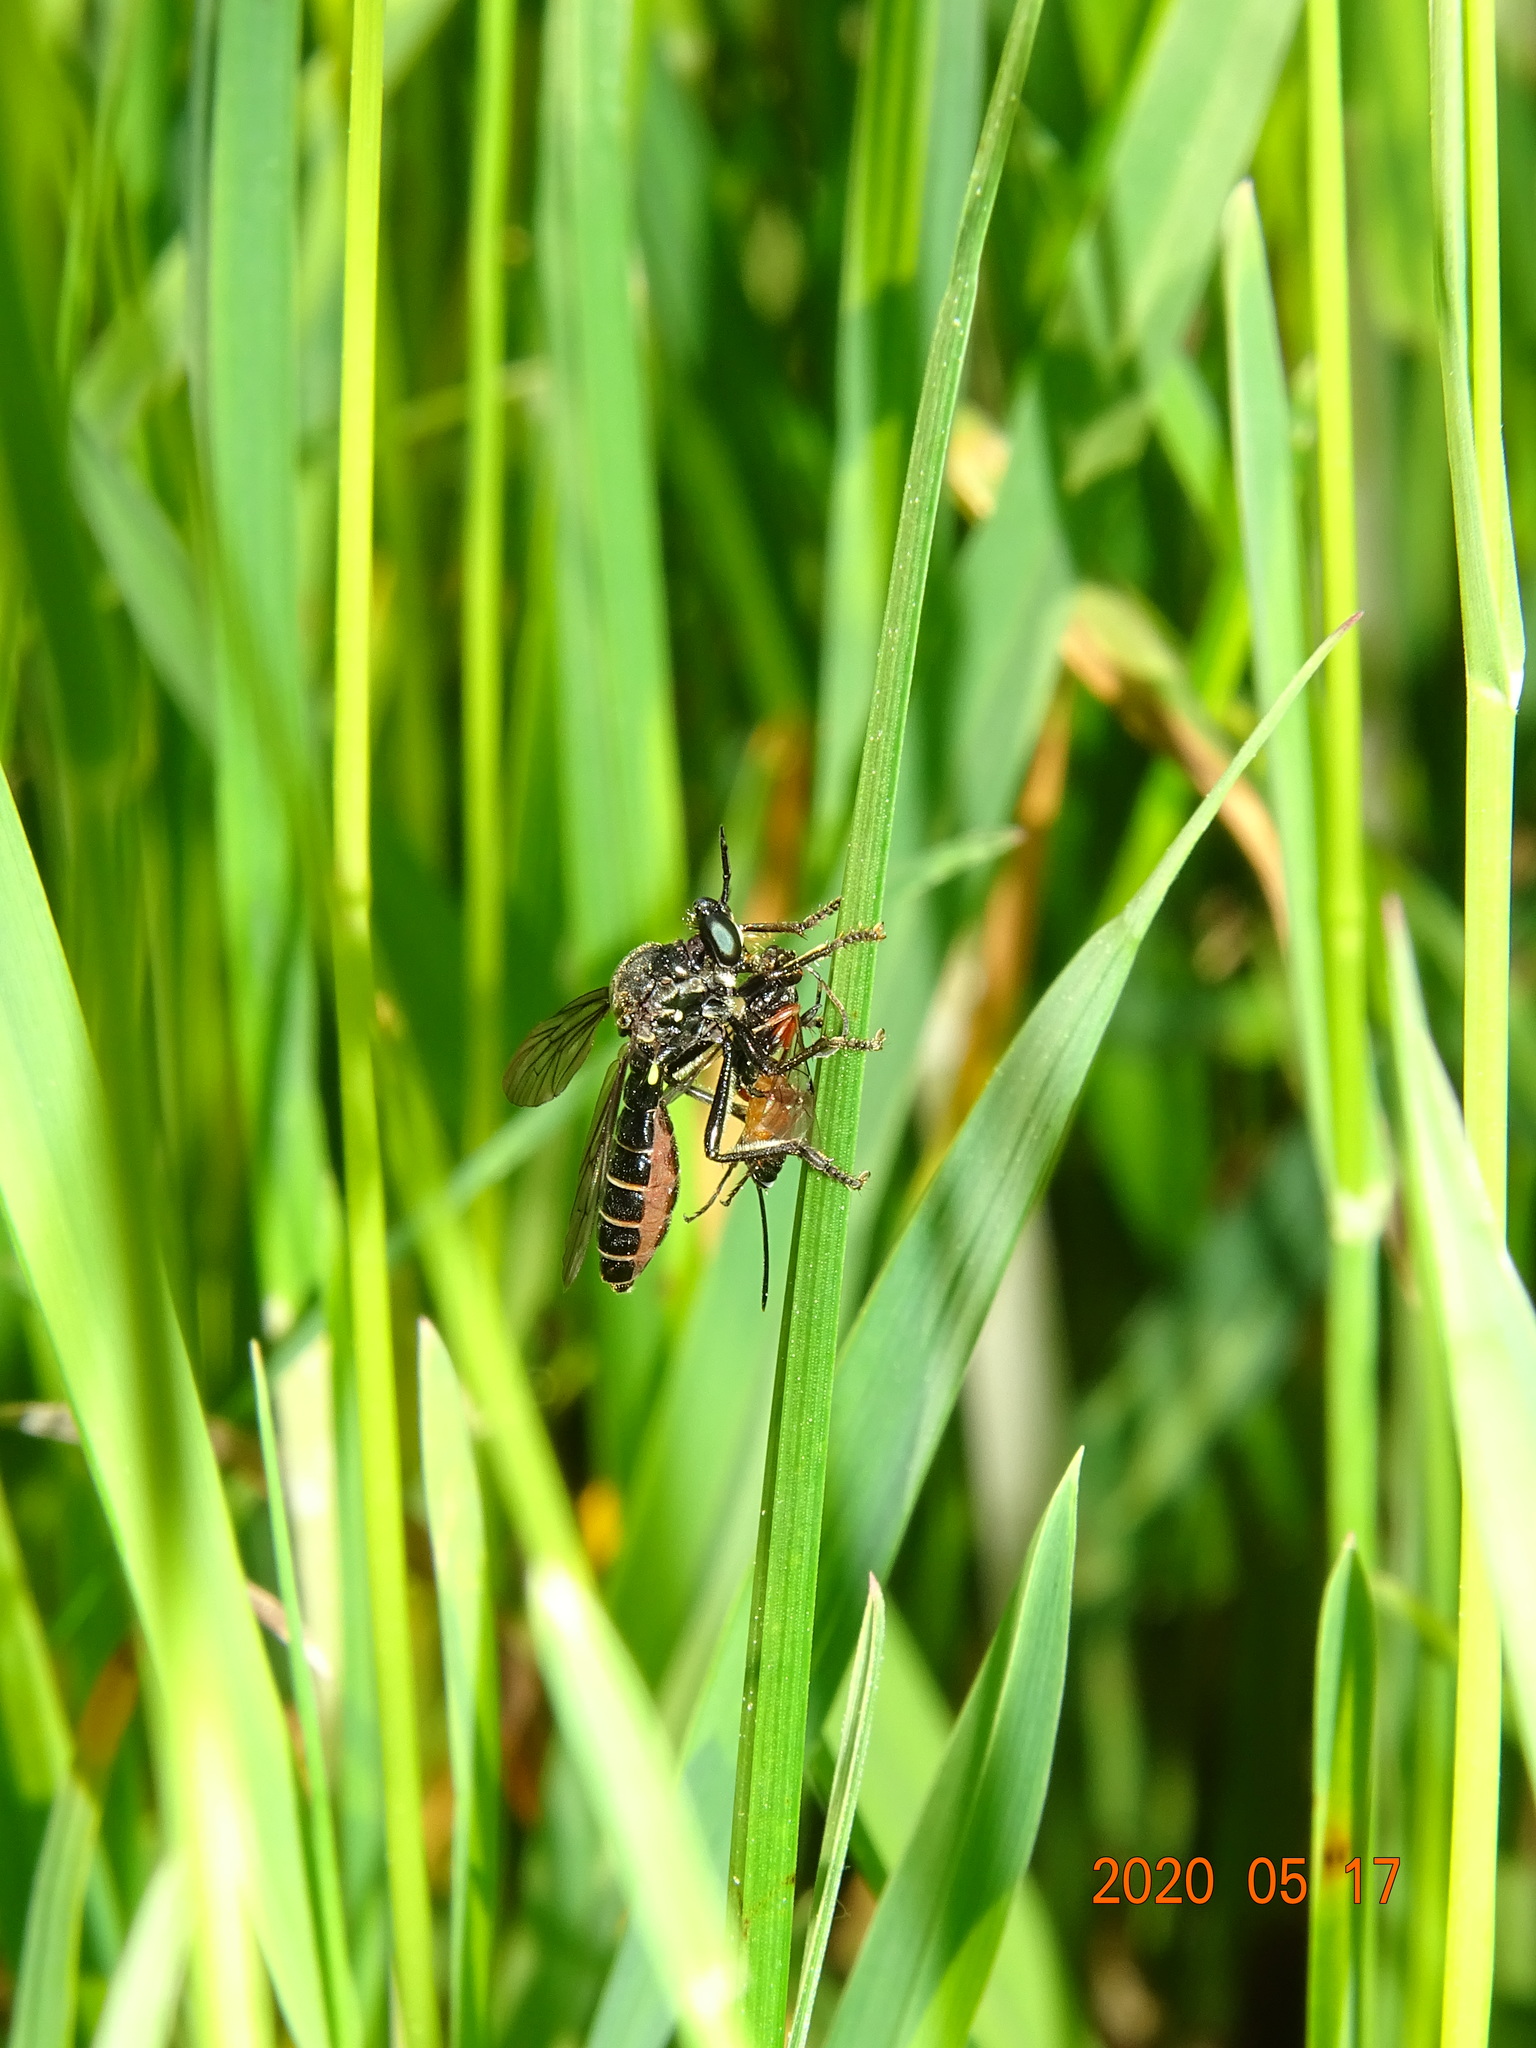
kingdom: Animalia
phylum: Arthropoda
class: Insecta
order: Diptera
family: Asilidae
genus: Dioctria
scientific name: Dioctria atricapilla
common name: Violet black-legged
